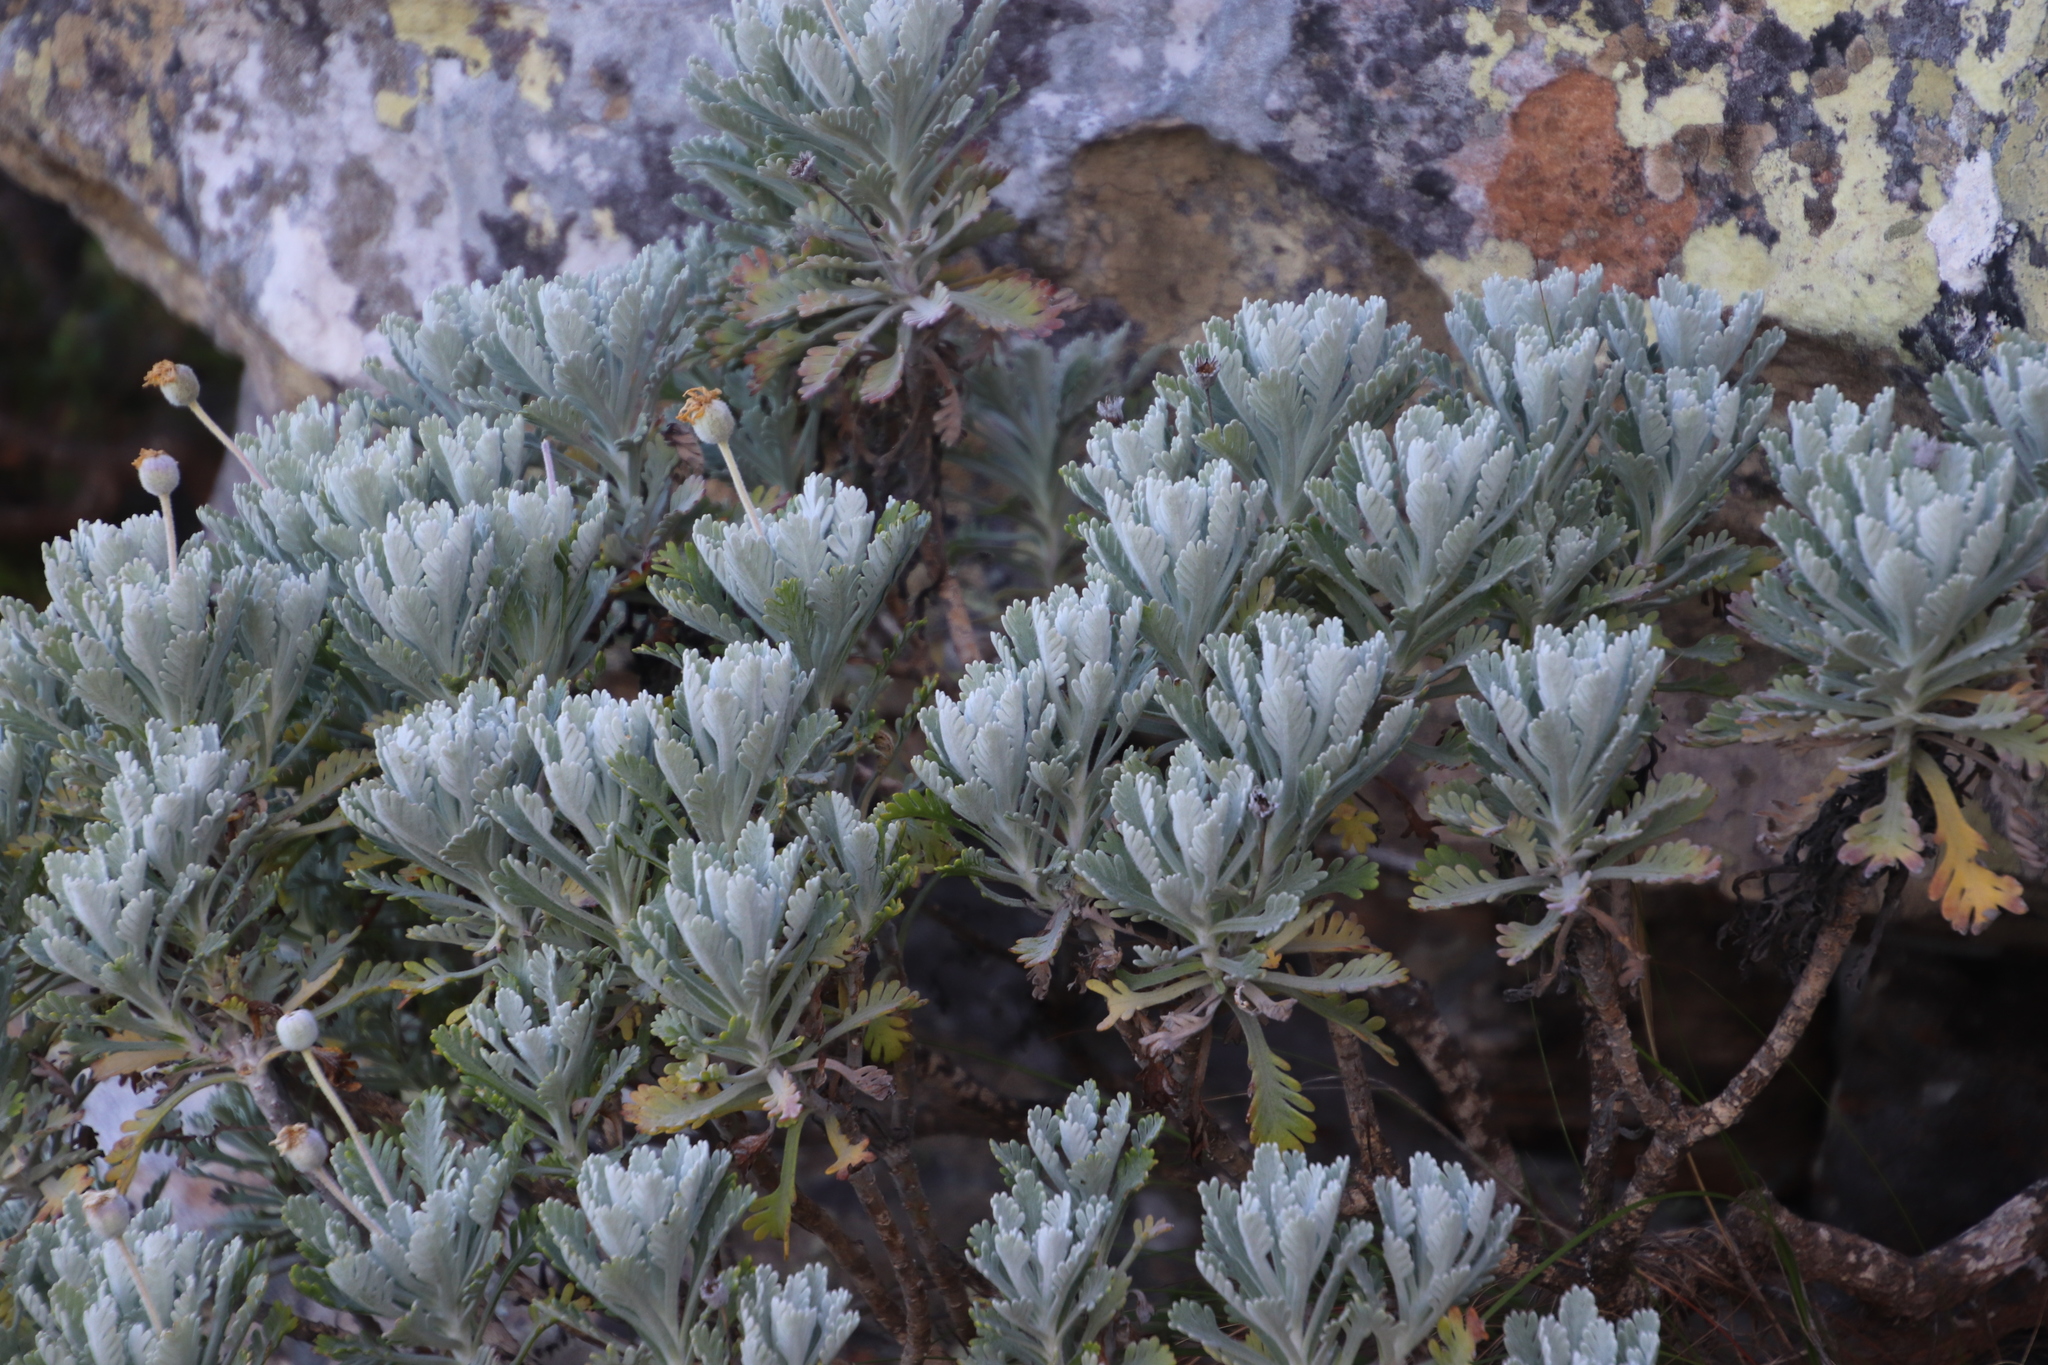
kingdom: Plantae
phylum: Tracheophyta
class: Magnoliopsida
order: Asterales
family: Asteraceae
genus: Euryops
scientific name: Euryops pectinatus
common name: Gray-leaf euryops
